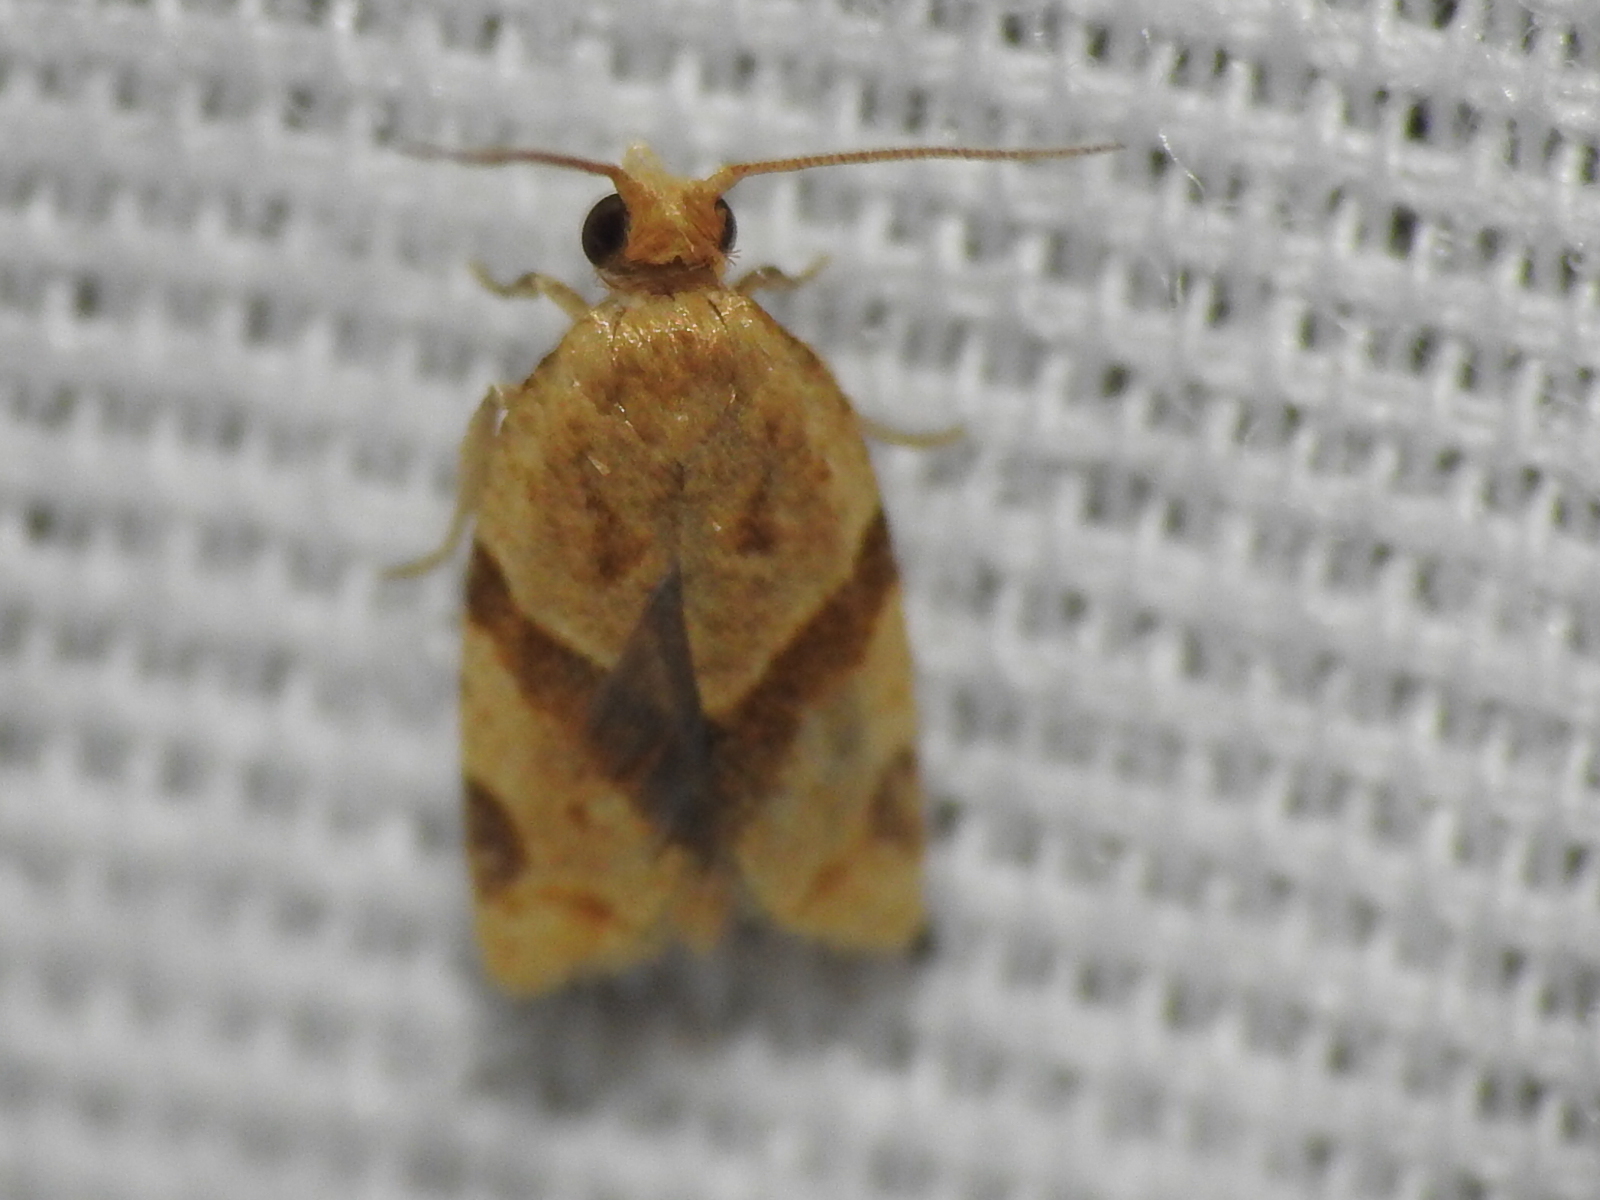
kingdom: Animalia
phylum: Arthropoda
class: Insecta
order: Lepidoptera
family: Tortricidae
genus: Clepsis
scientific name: Clepsis peritana
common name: Garden tortrix
